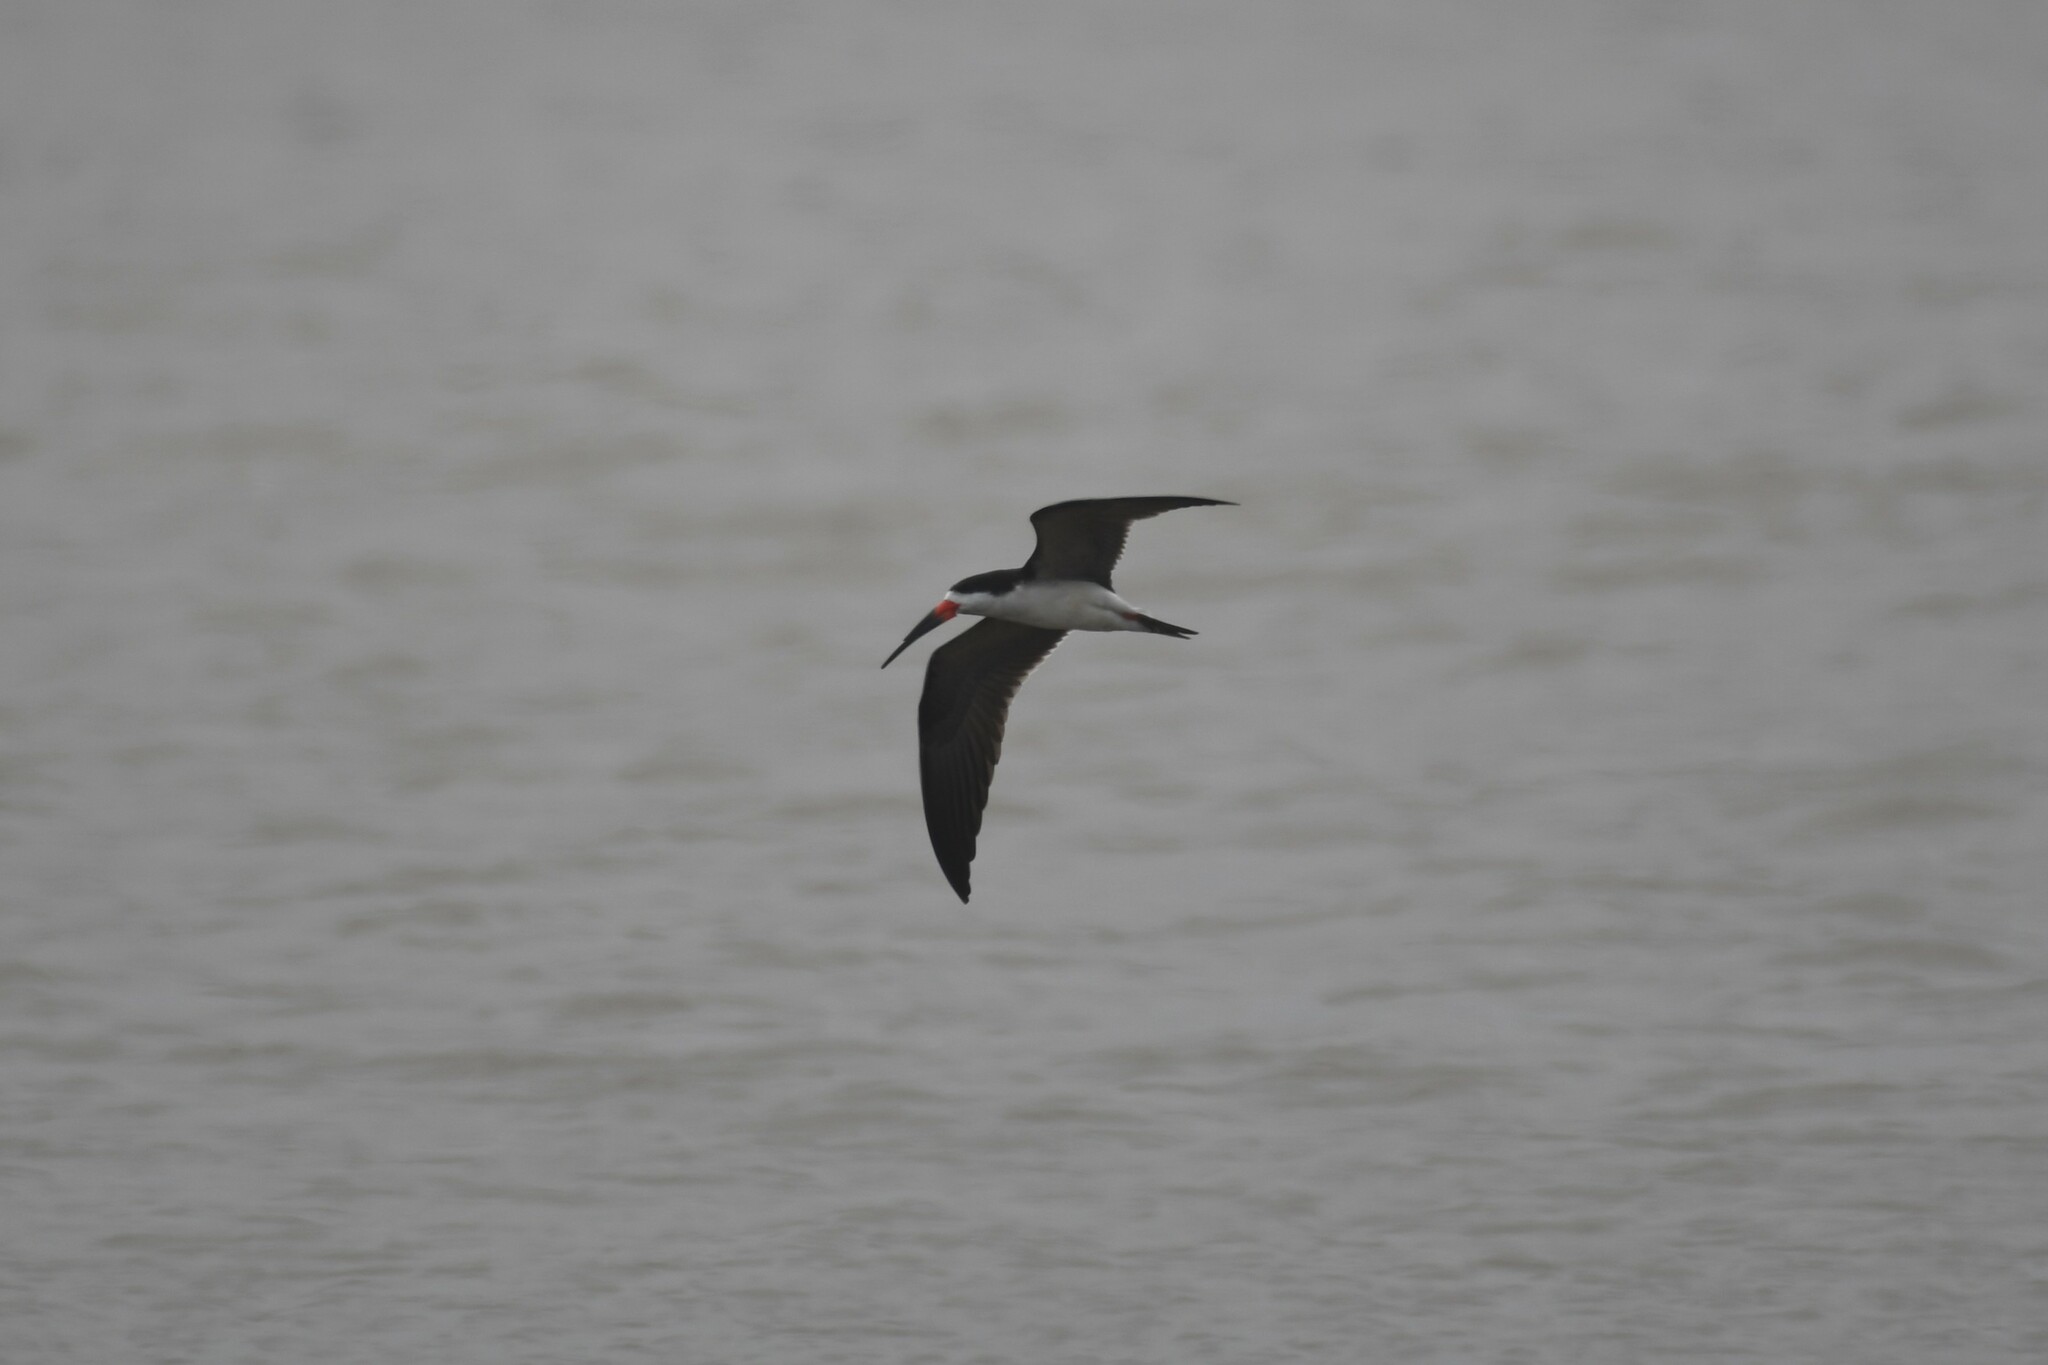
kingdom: Animalia
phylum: Chordata
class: Aves
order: Charadriiformes
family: Laridae
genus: Rynchops
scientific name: Rynchops niger
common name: Black skimmer
